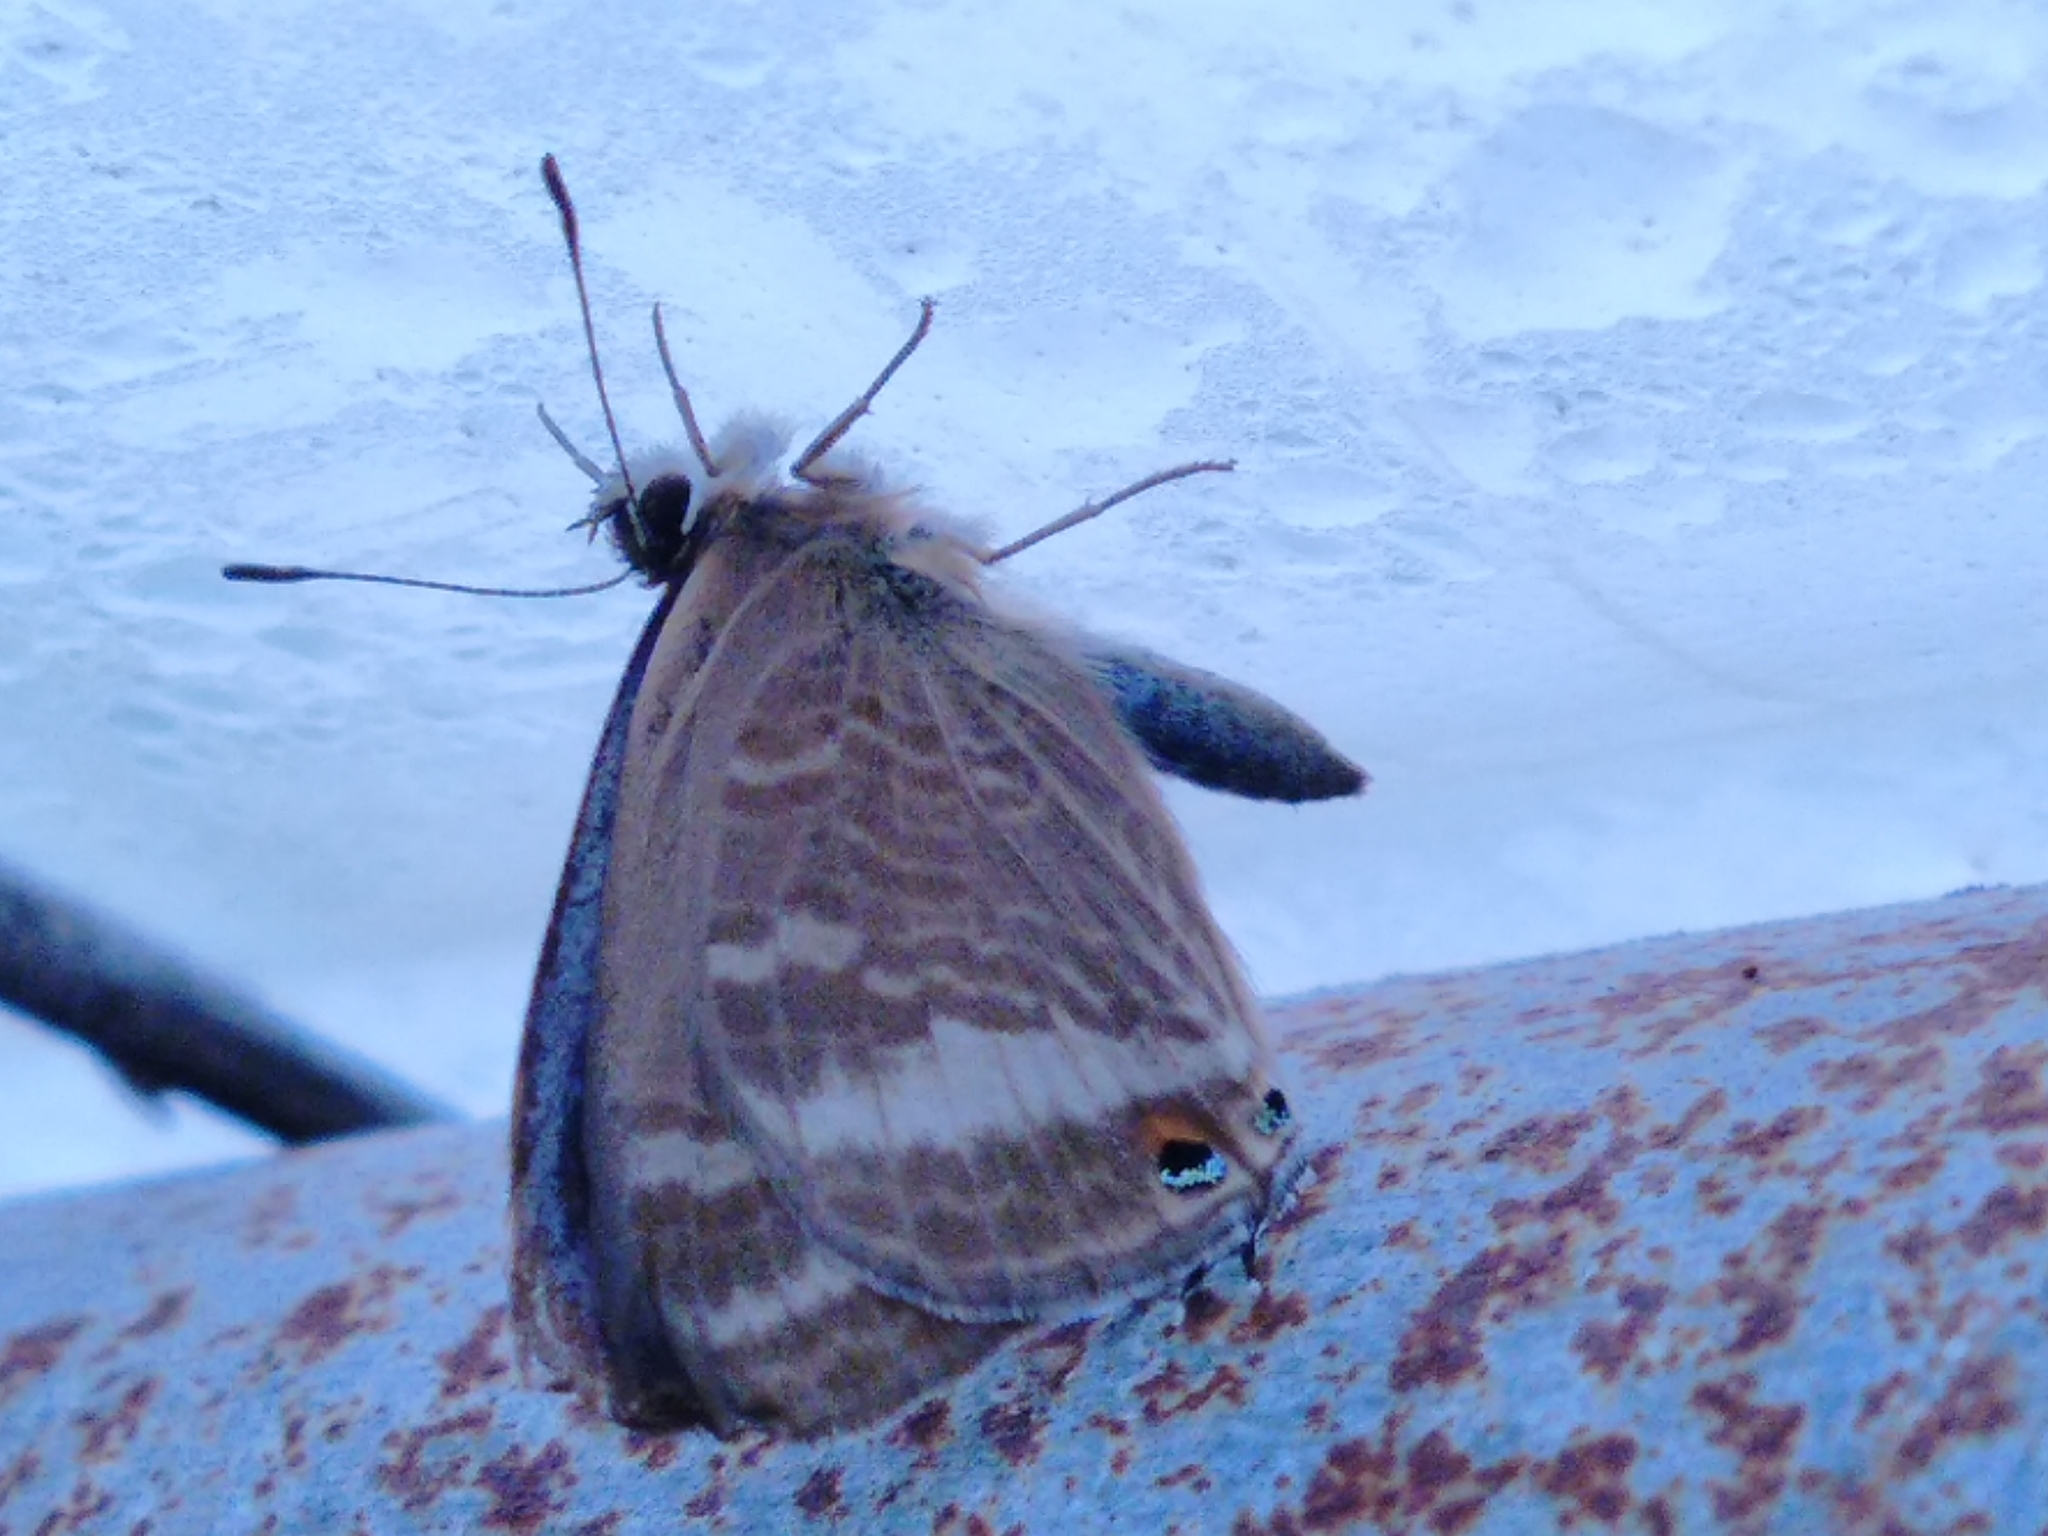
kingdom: Animalia
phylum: Arthropoda
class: Insecta
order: Lepidoptera
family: Lycaenidae
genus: Lampides
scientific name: Lampides boeticus
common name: Long-tailed blue
